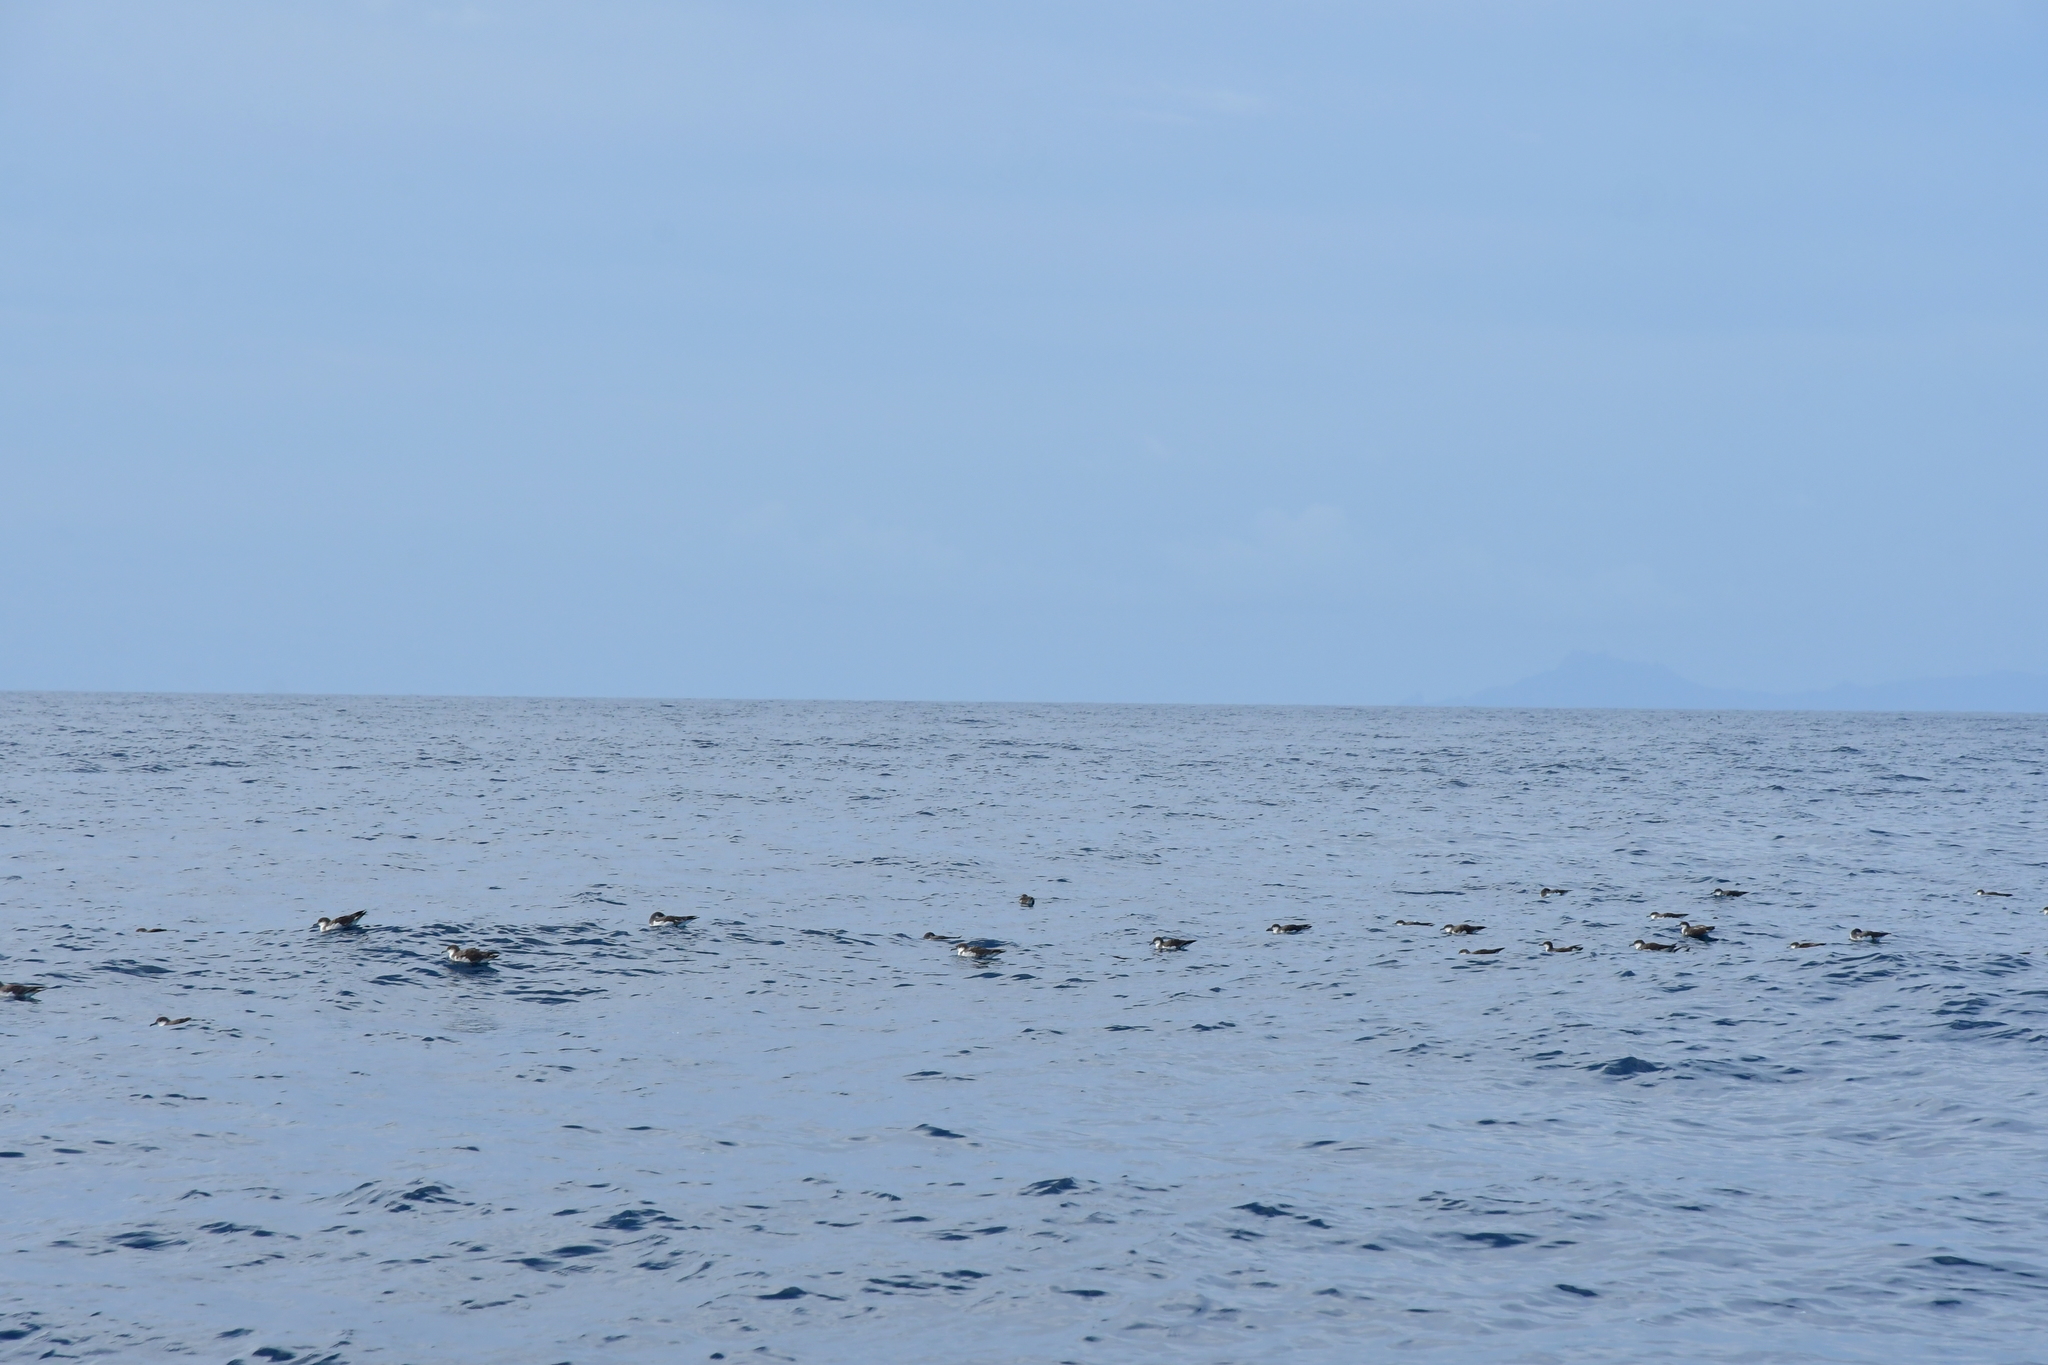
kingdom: Animalia
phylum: Chordata
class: Aves
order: Procellariiformes
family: Procellariidae
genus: Puffinus
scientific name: Puffinus bulleri
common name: Buller's shearwater
